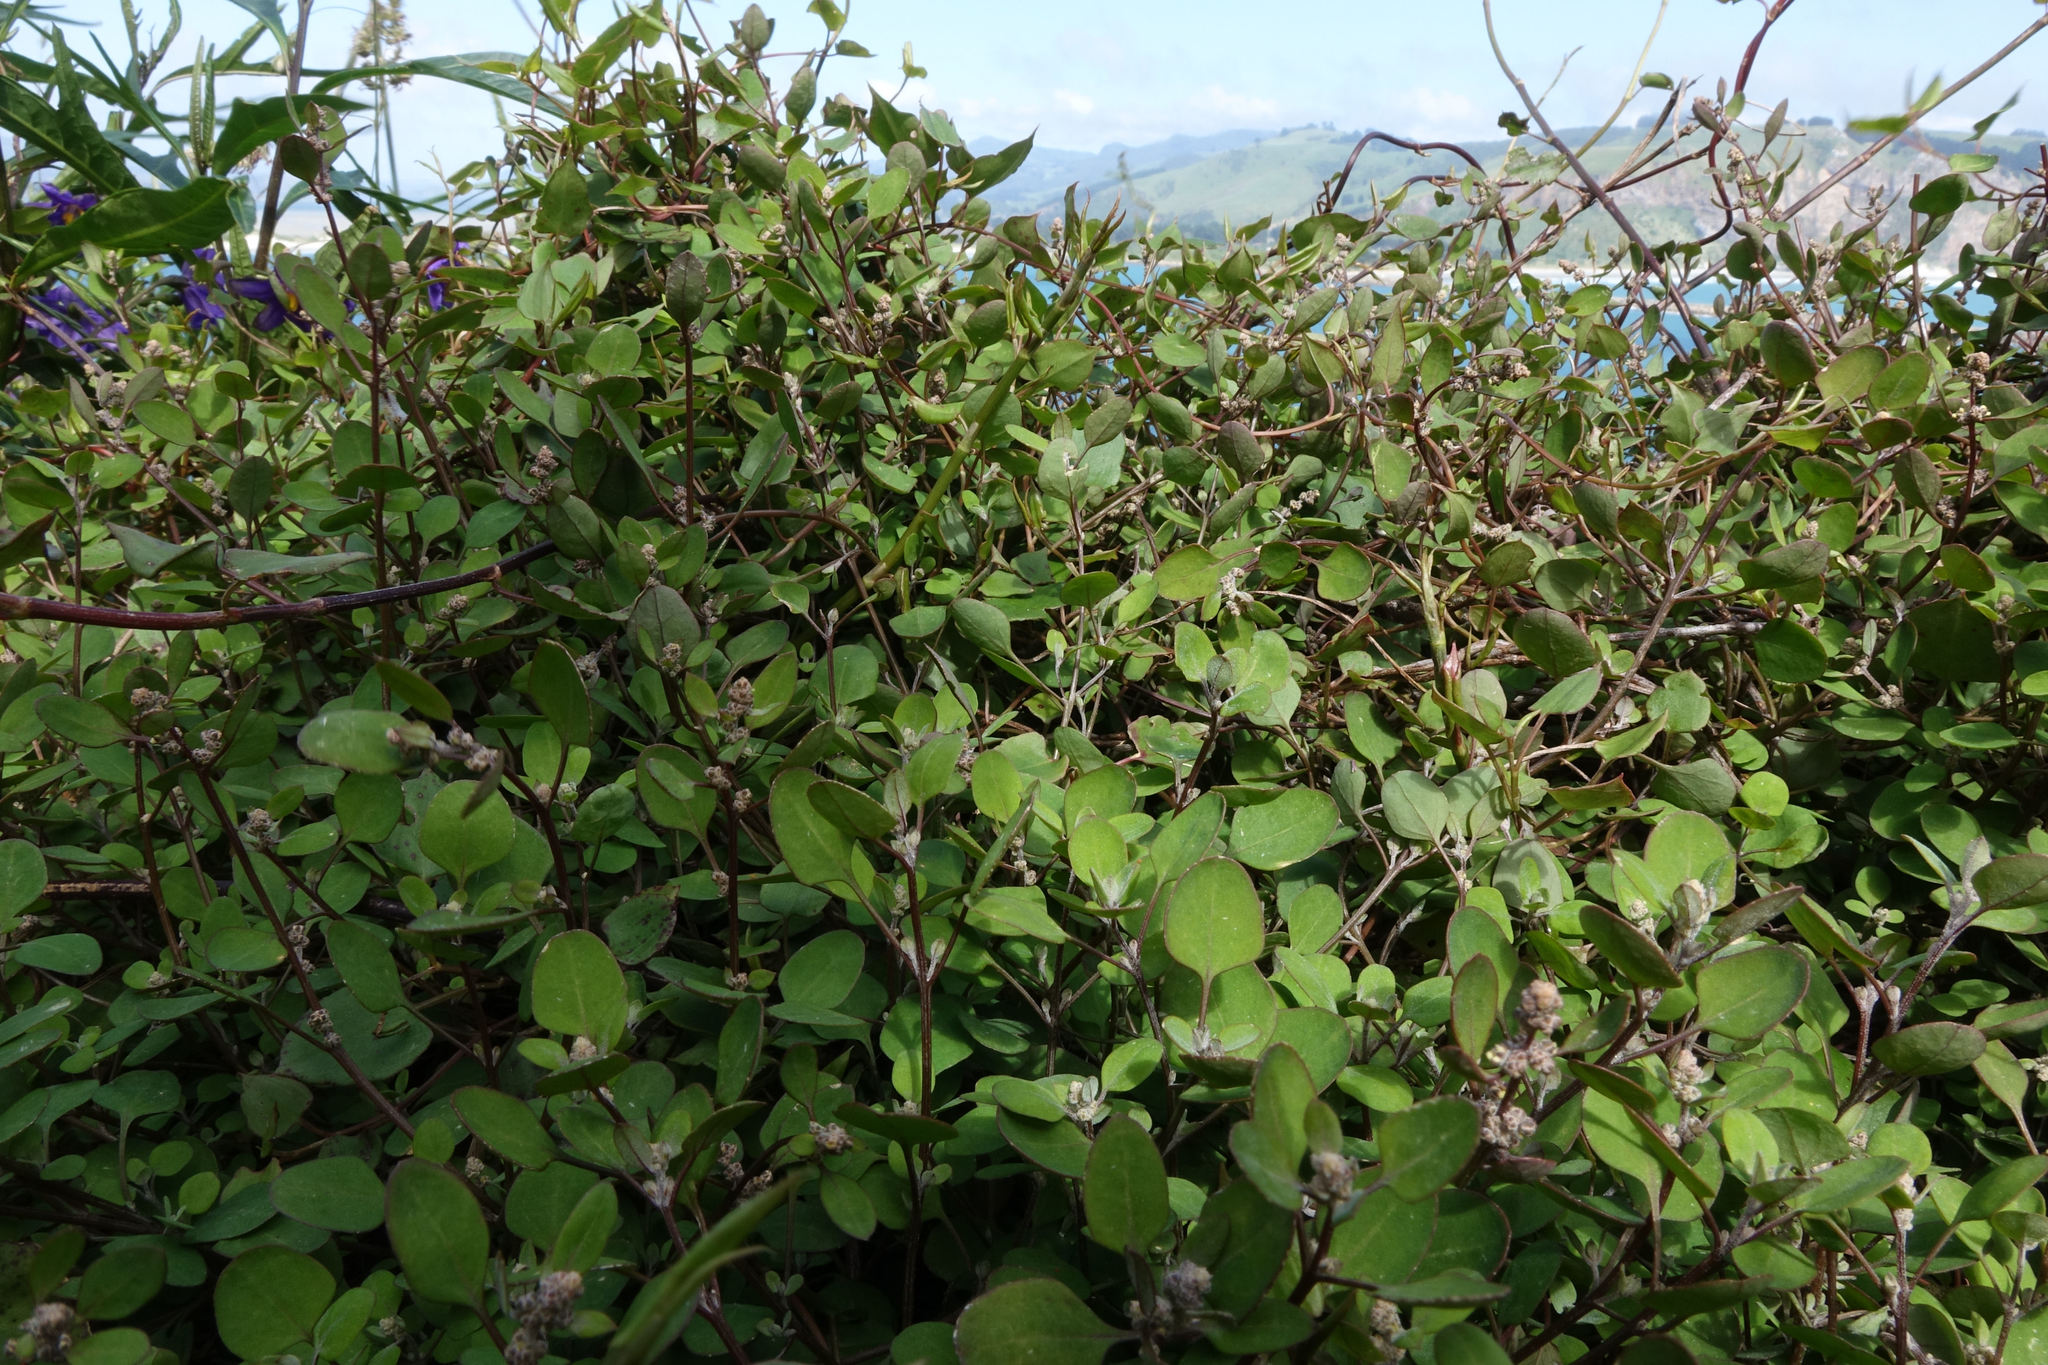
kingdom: Plantae
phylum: Tracheophyta
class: Magnoliopsida
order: Caryophyllales
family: Amaranthaceae
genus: Chenopodium
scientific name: Chenopodium allanii
